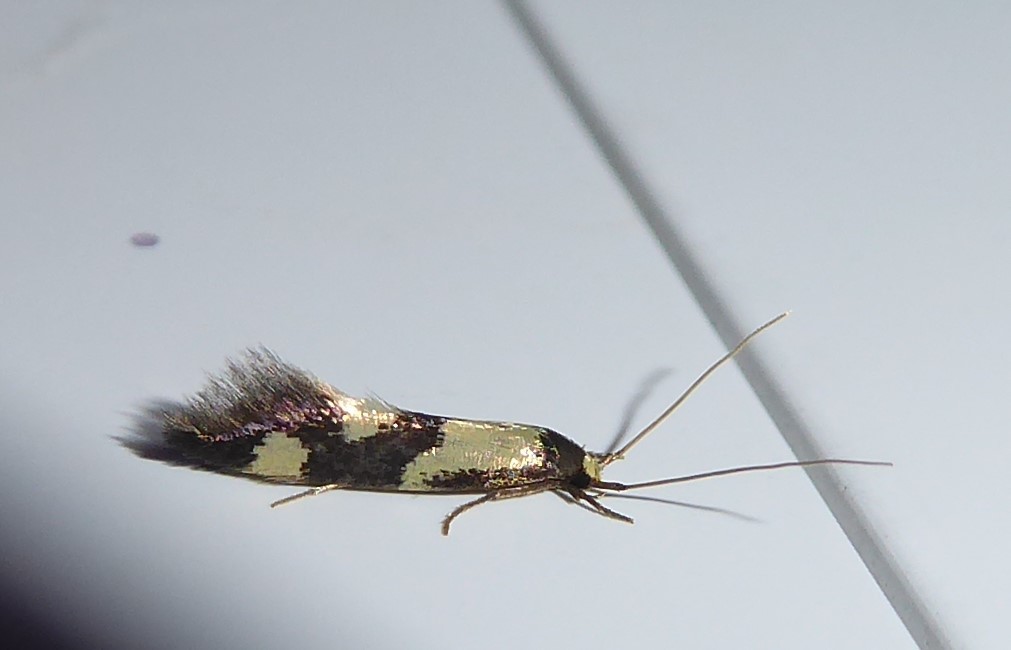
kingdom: Animalia
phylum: Arthropoda
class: Insecta
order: Lepidoptera
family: Tineidae
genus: Opogona
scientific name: Opogona comptella
